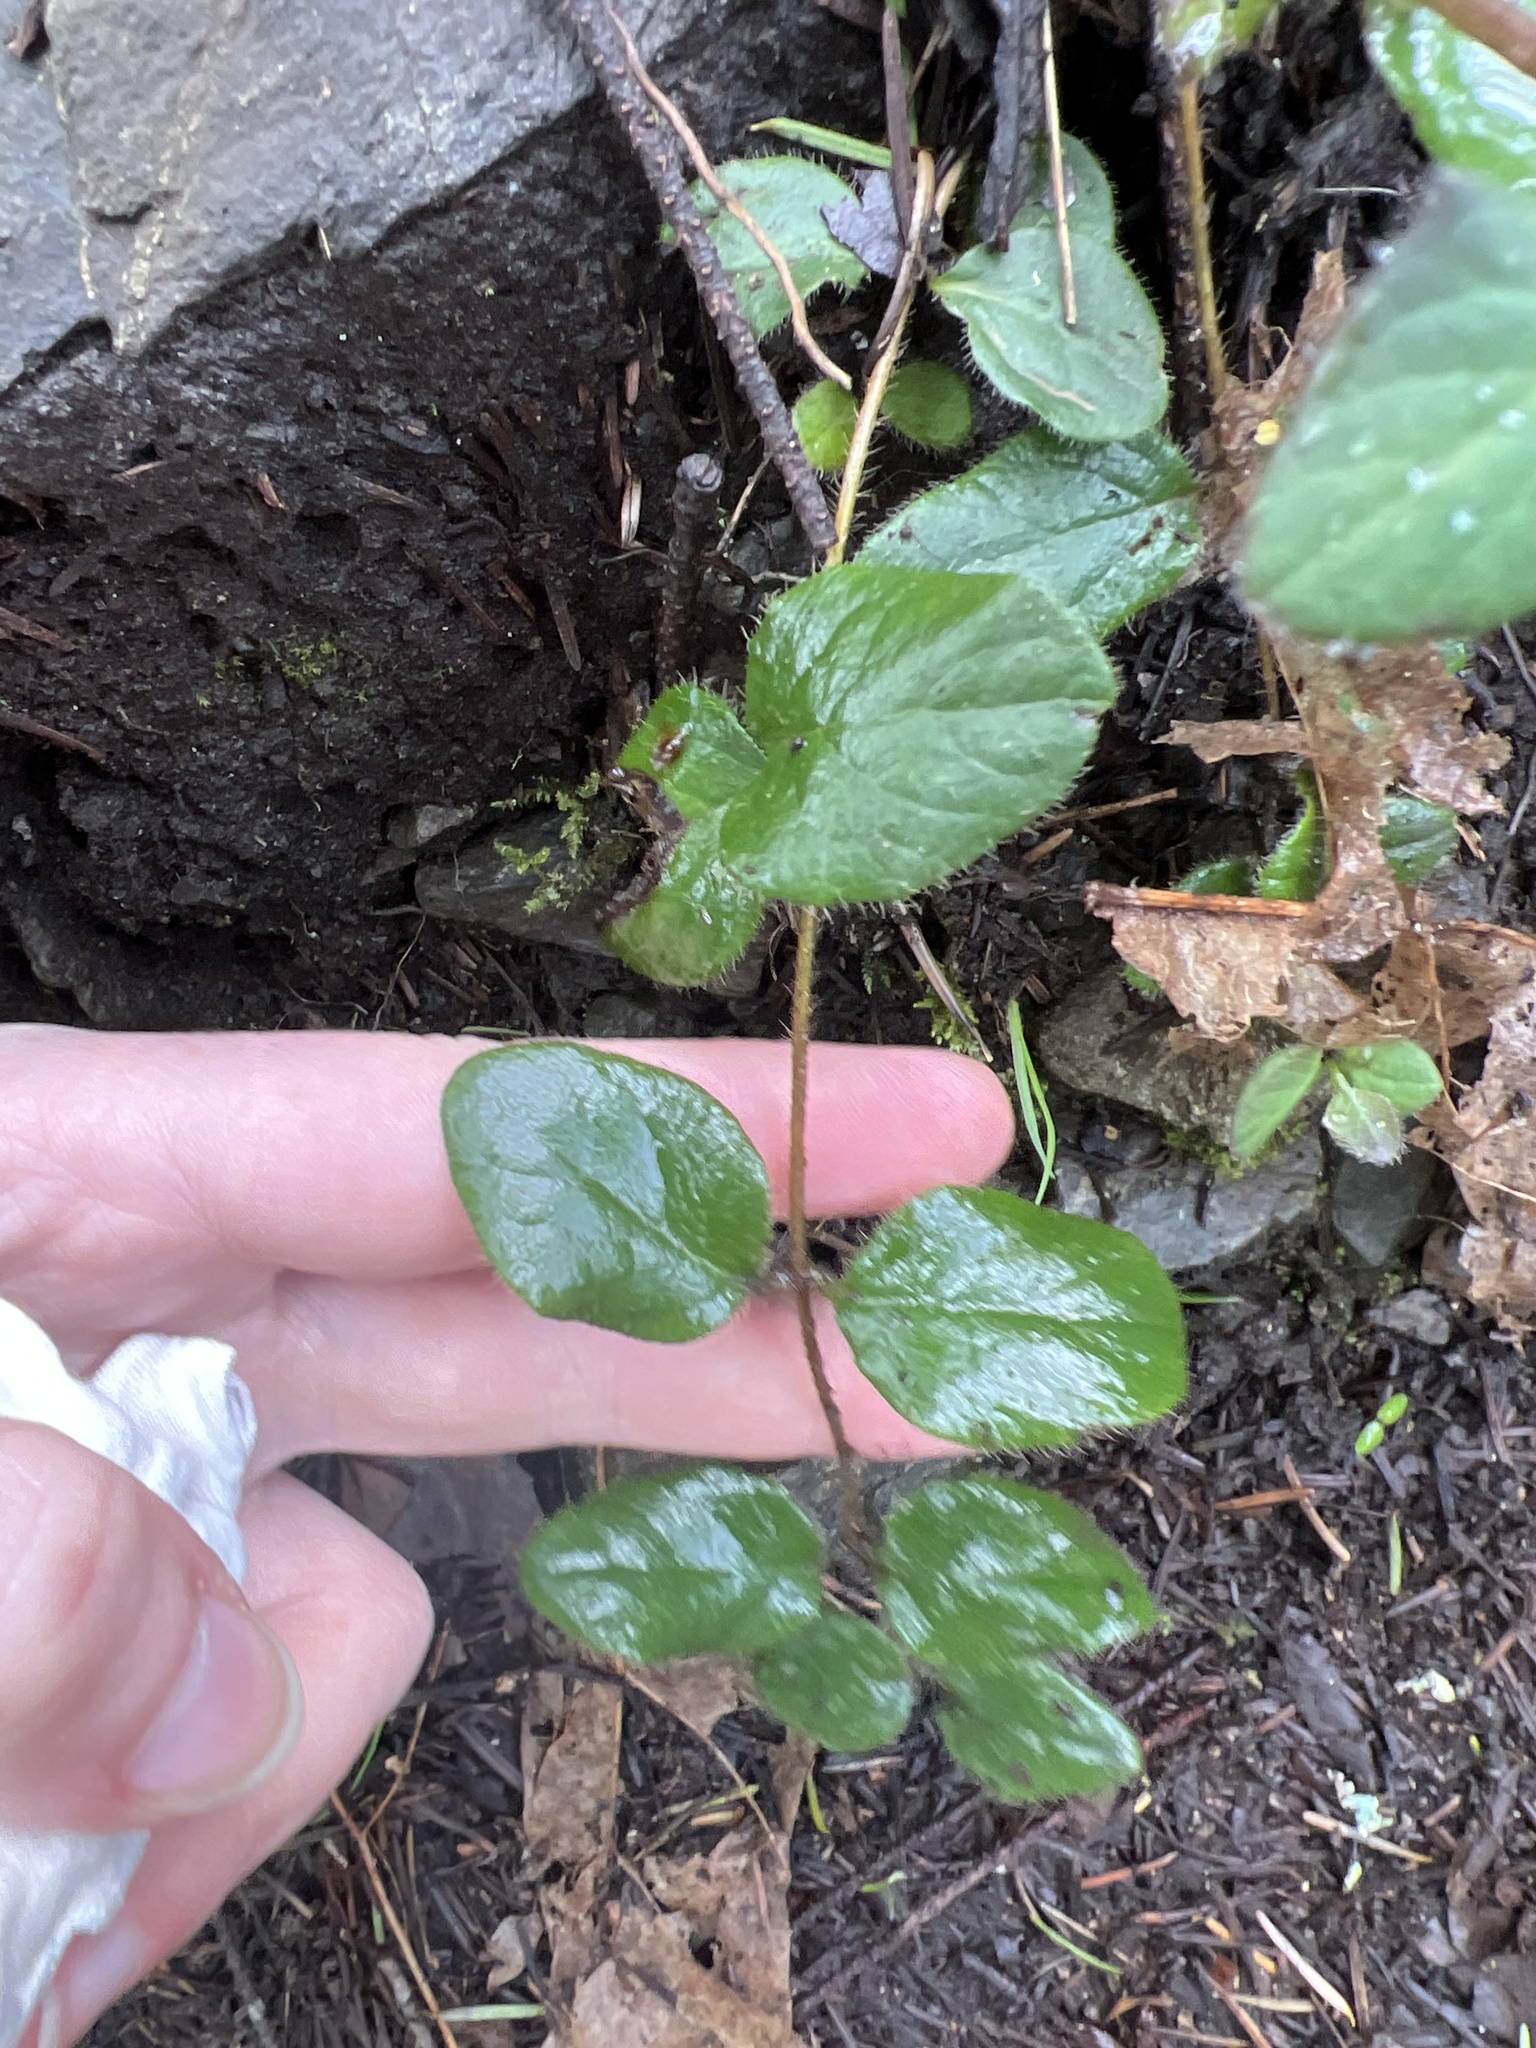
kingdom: Plantae
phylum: Tracheophyta
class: Magnoliopsida
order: Dipsacales
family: Caprifoliaceae
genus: Lonicera
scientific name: Lonicera hispidula
